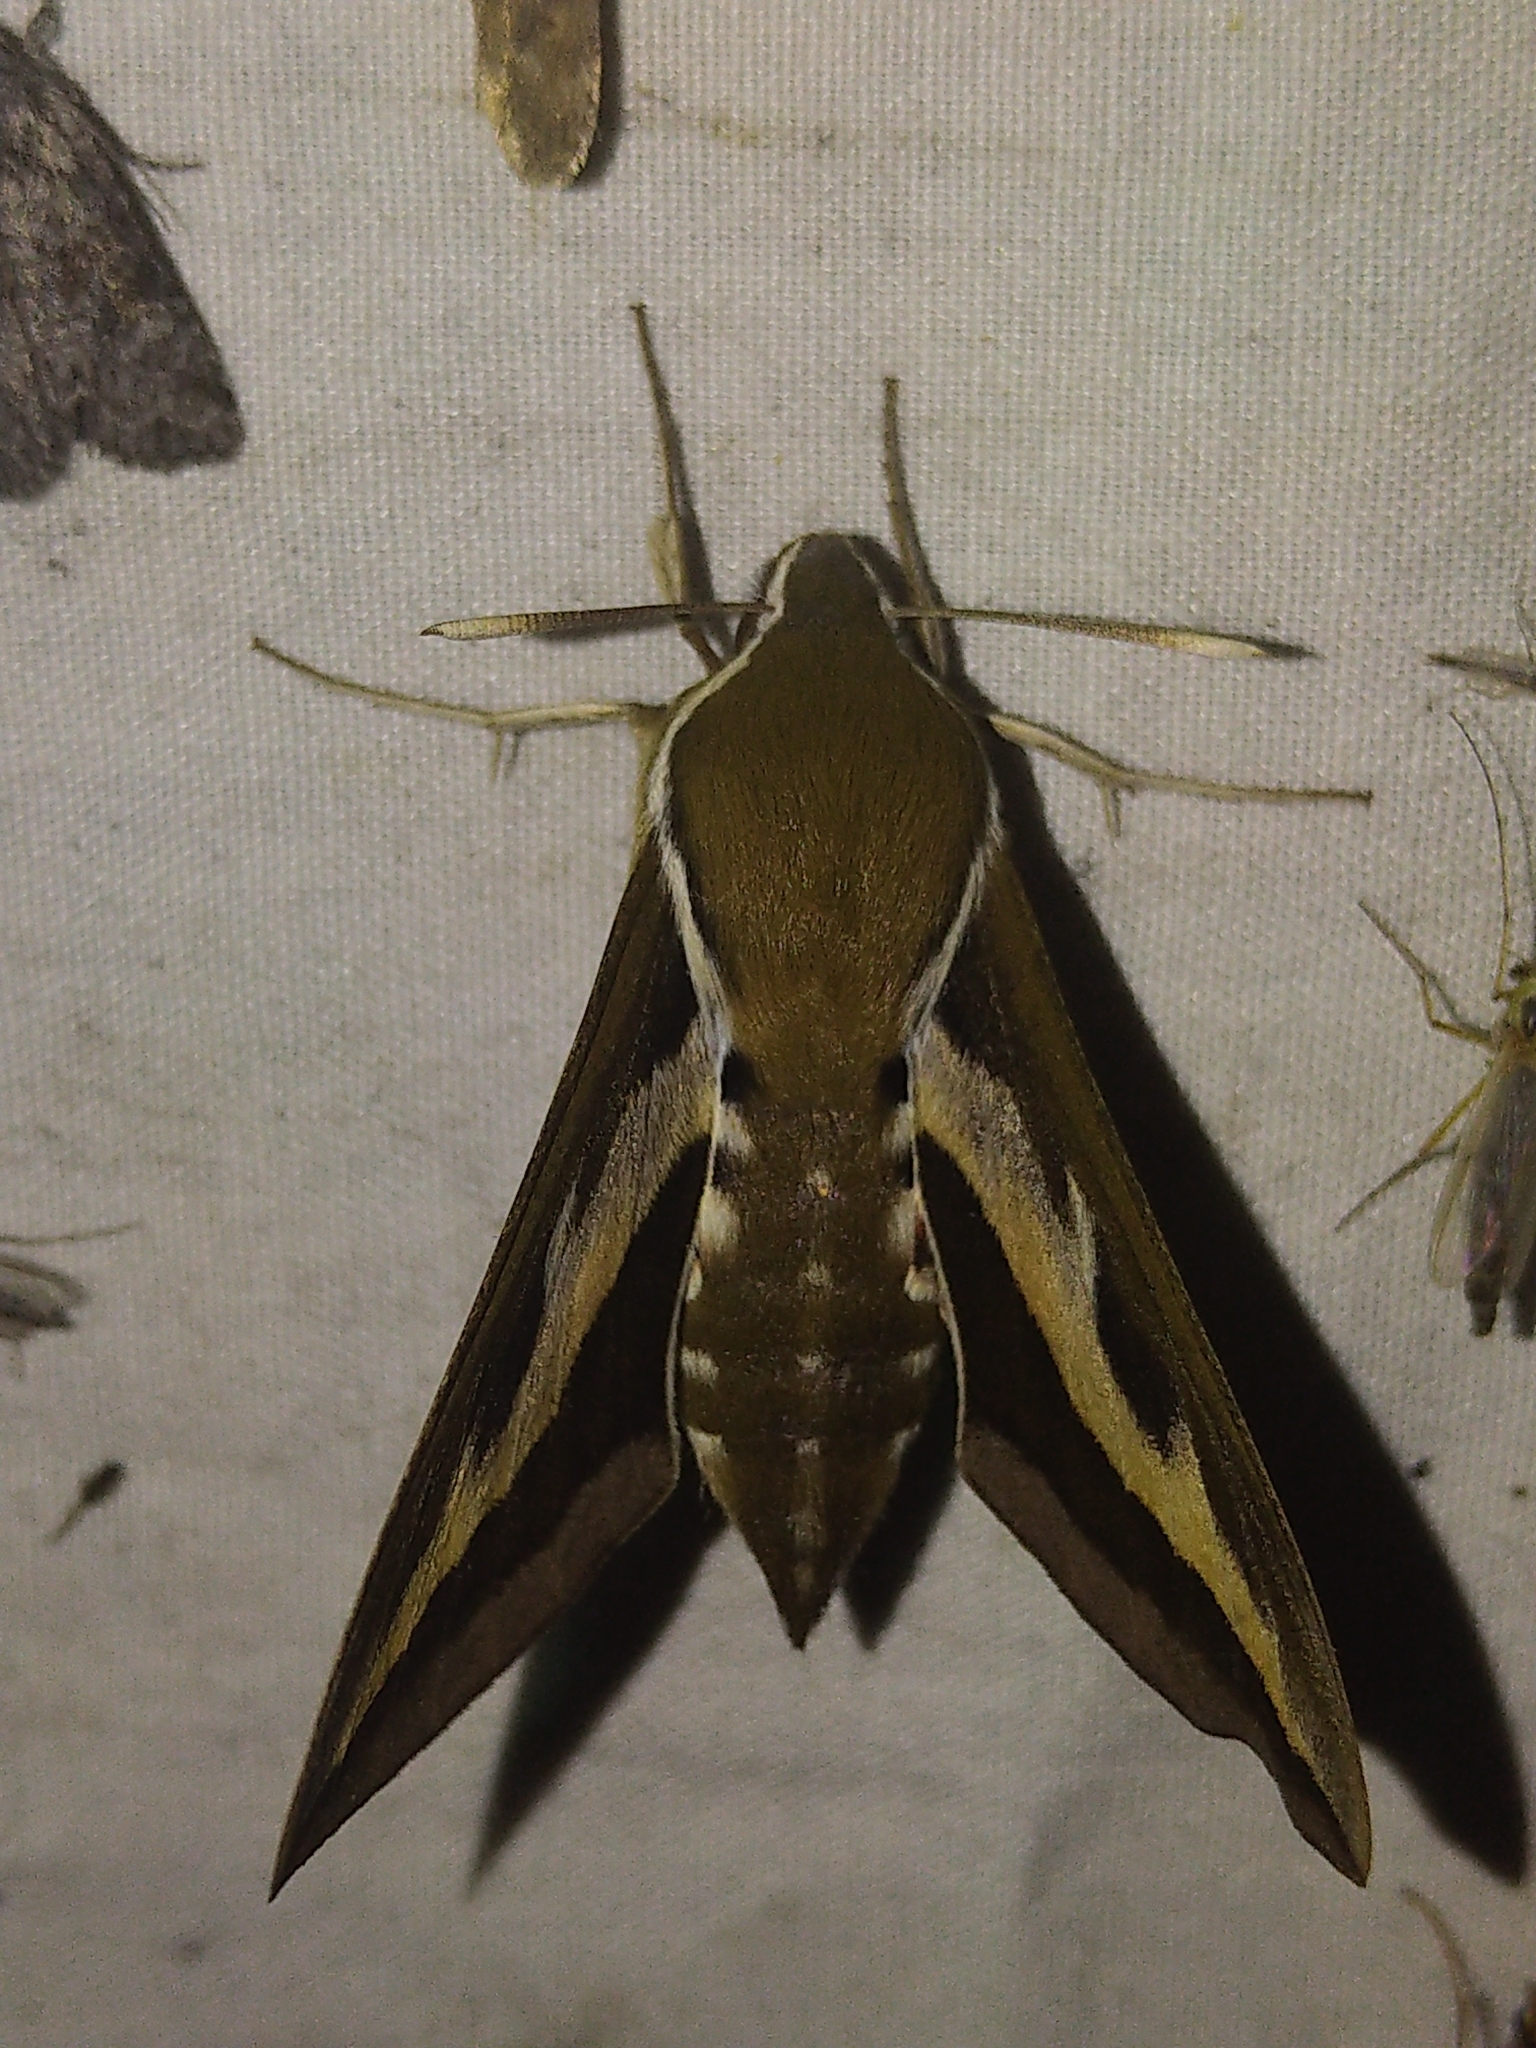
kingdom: Animalia
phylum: Arthropoda
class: Insecta
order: Lepidoptera
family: Sphingidae
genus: Hyles
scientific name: Hyles gallii
